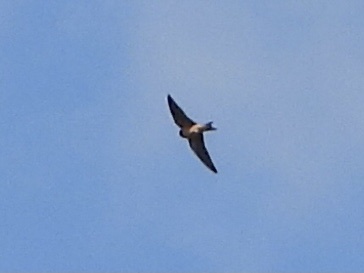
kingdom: Animalia
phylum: Chordata
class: Aves
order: Passeriformes
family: Hirundinidae
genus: Hirundo
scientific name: Hirundo rustica
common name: Barn swallow
